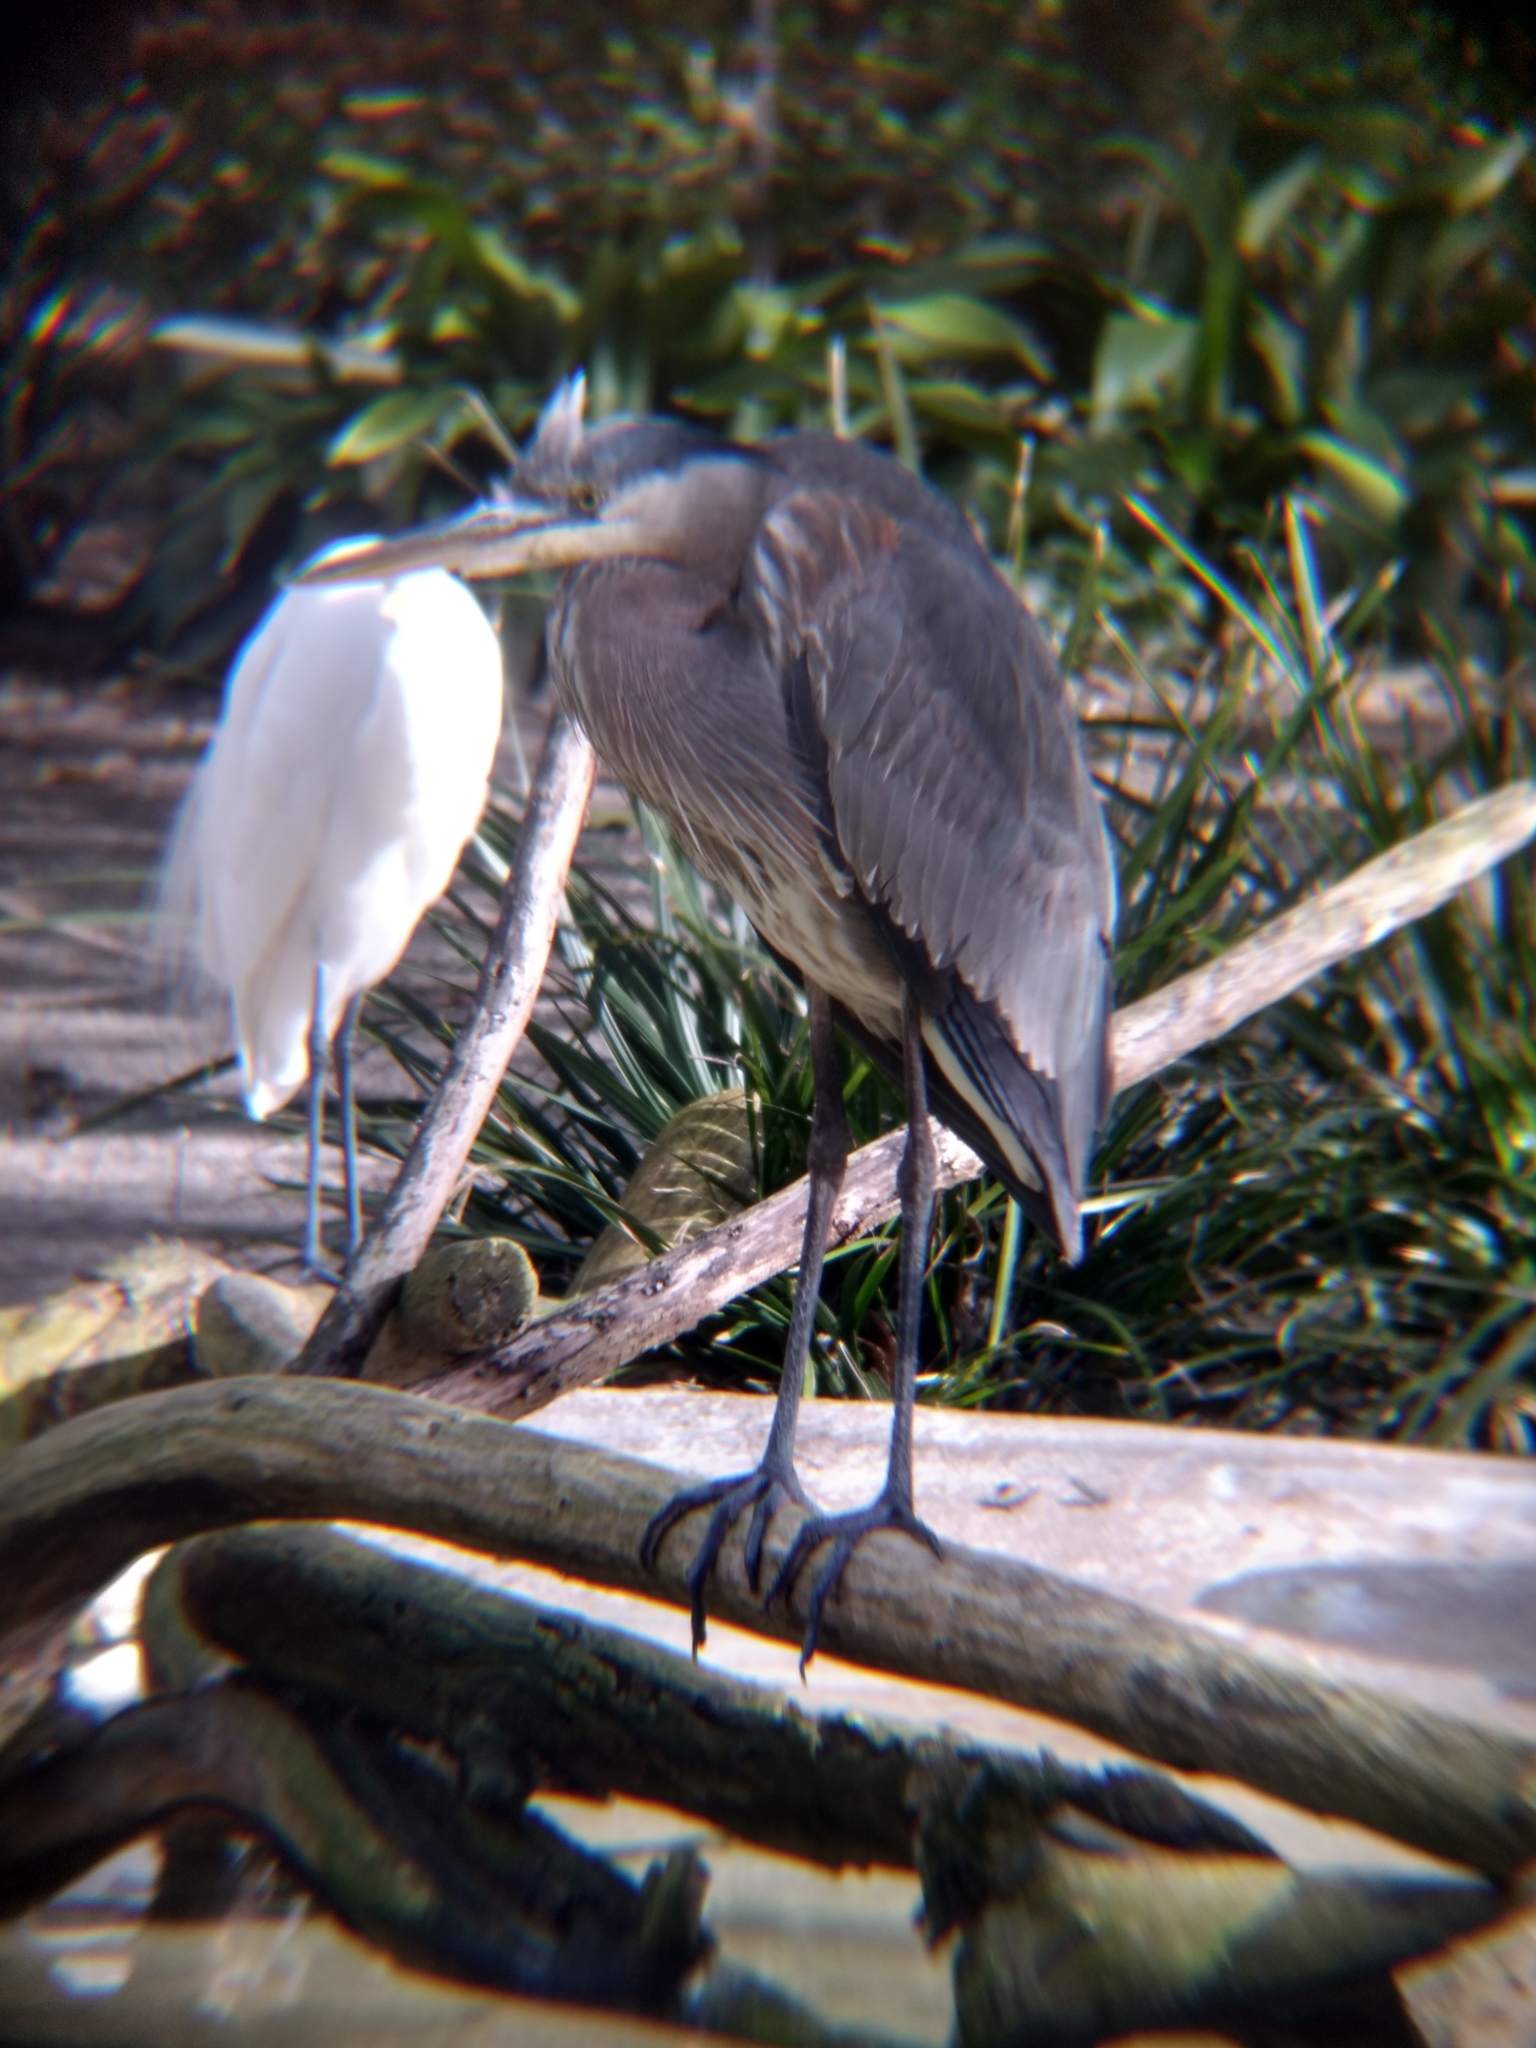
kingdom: Animalia
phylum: Chordata
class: Aves
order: Pelecaniformes
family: Ardeidae
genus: Ardea
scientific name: Ardea herodias
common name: Great blue heron
